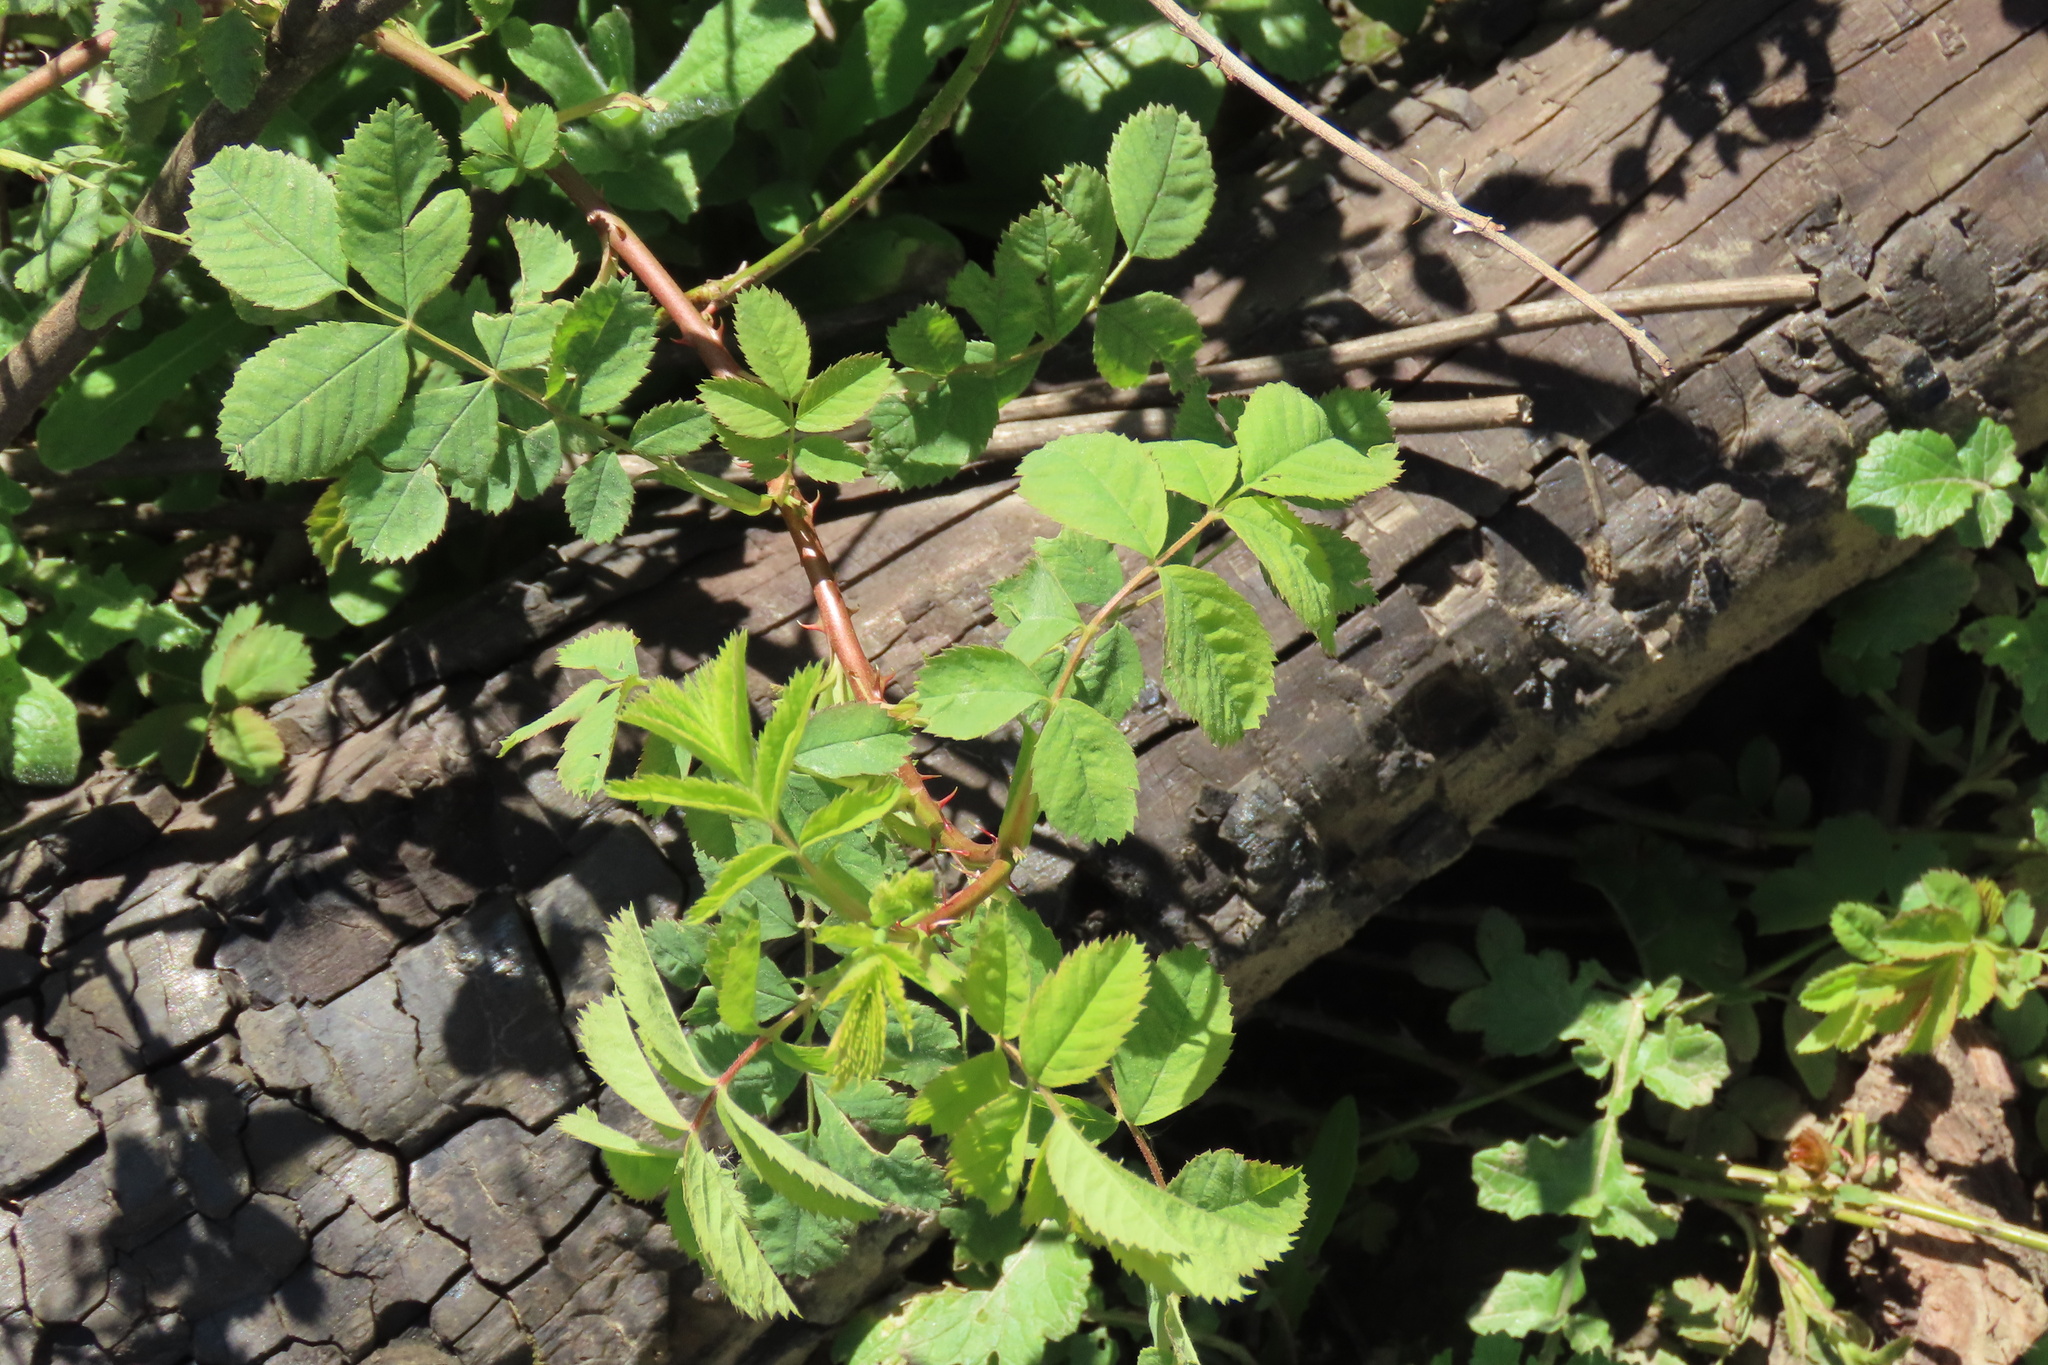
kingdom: Plantae
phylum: Tracheophyta
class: Magnoliopsida
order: Rosales
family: Rosaceae
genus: Rosa
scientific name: Rosa californica
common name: California rose
